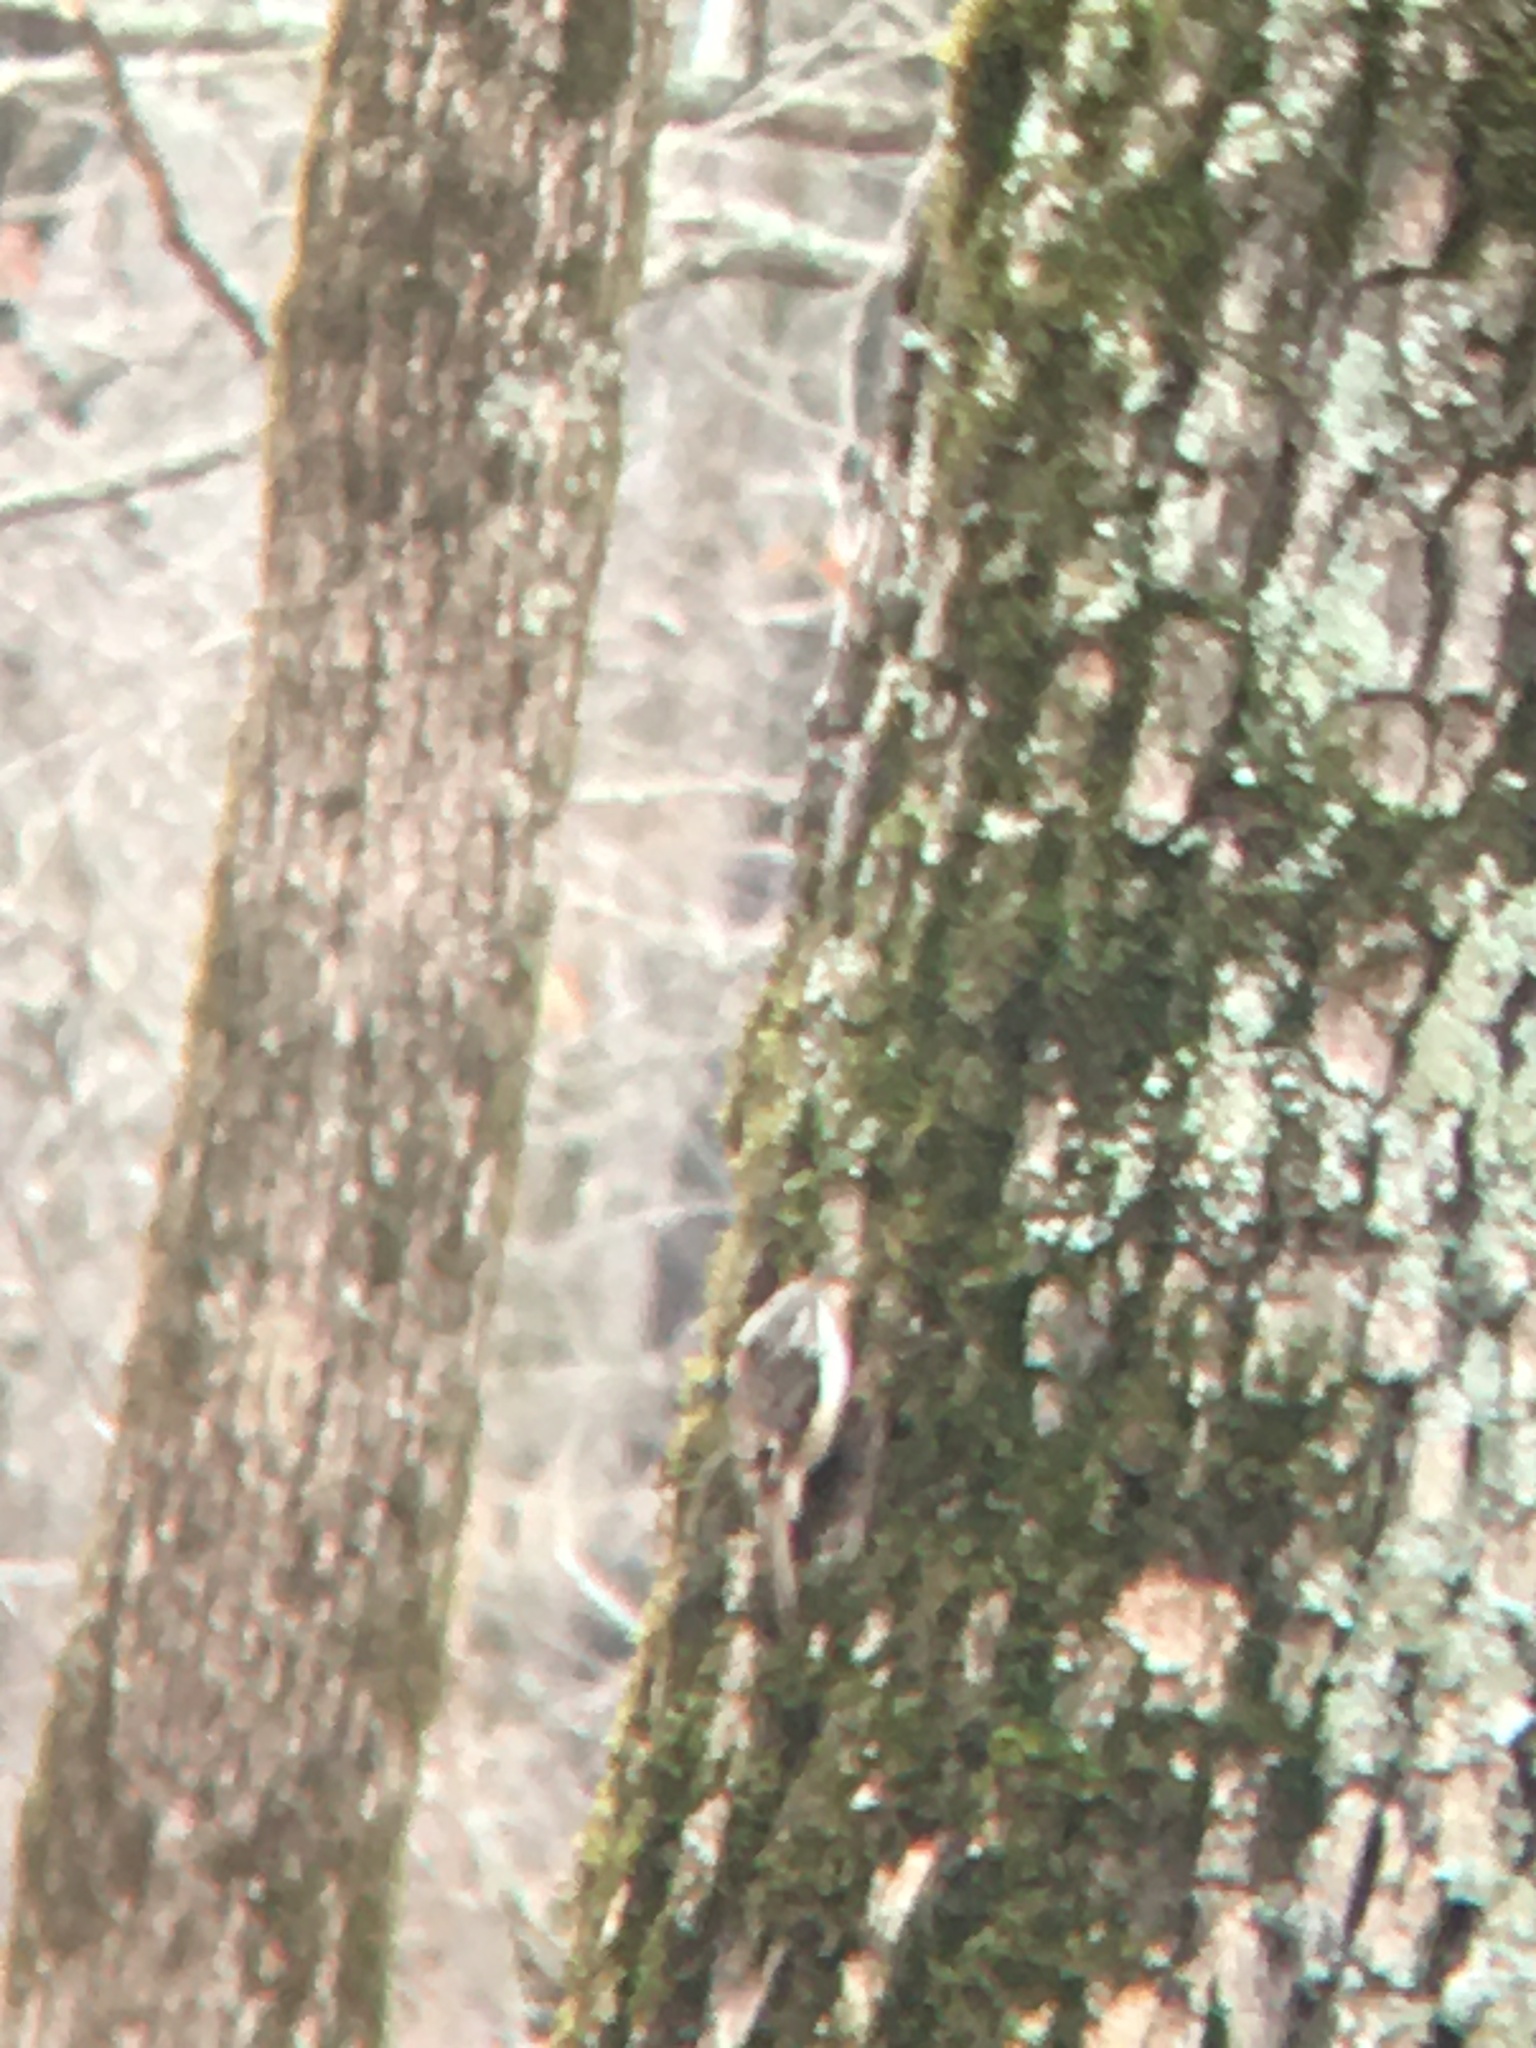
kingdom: Animalia
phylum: Chordata
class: Aves
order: Passeriformes
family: Certhiidae
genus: Certhia
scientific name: Certhia americana
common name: Brown creeper
